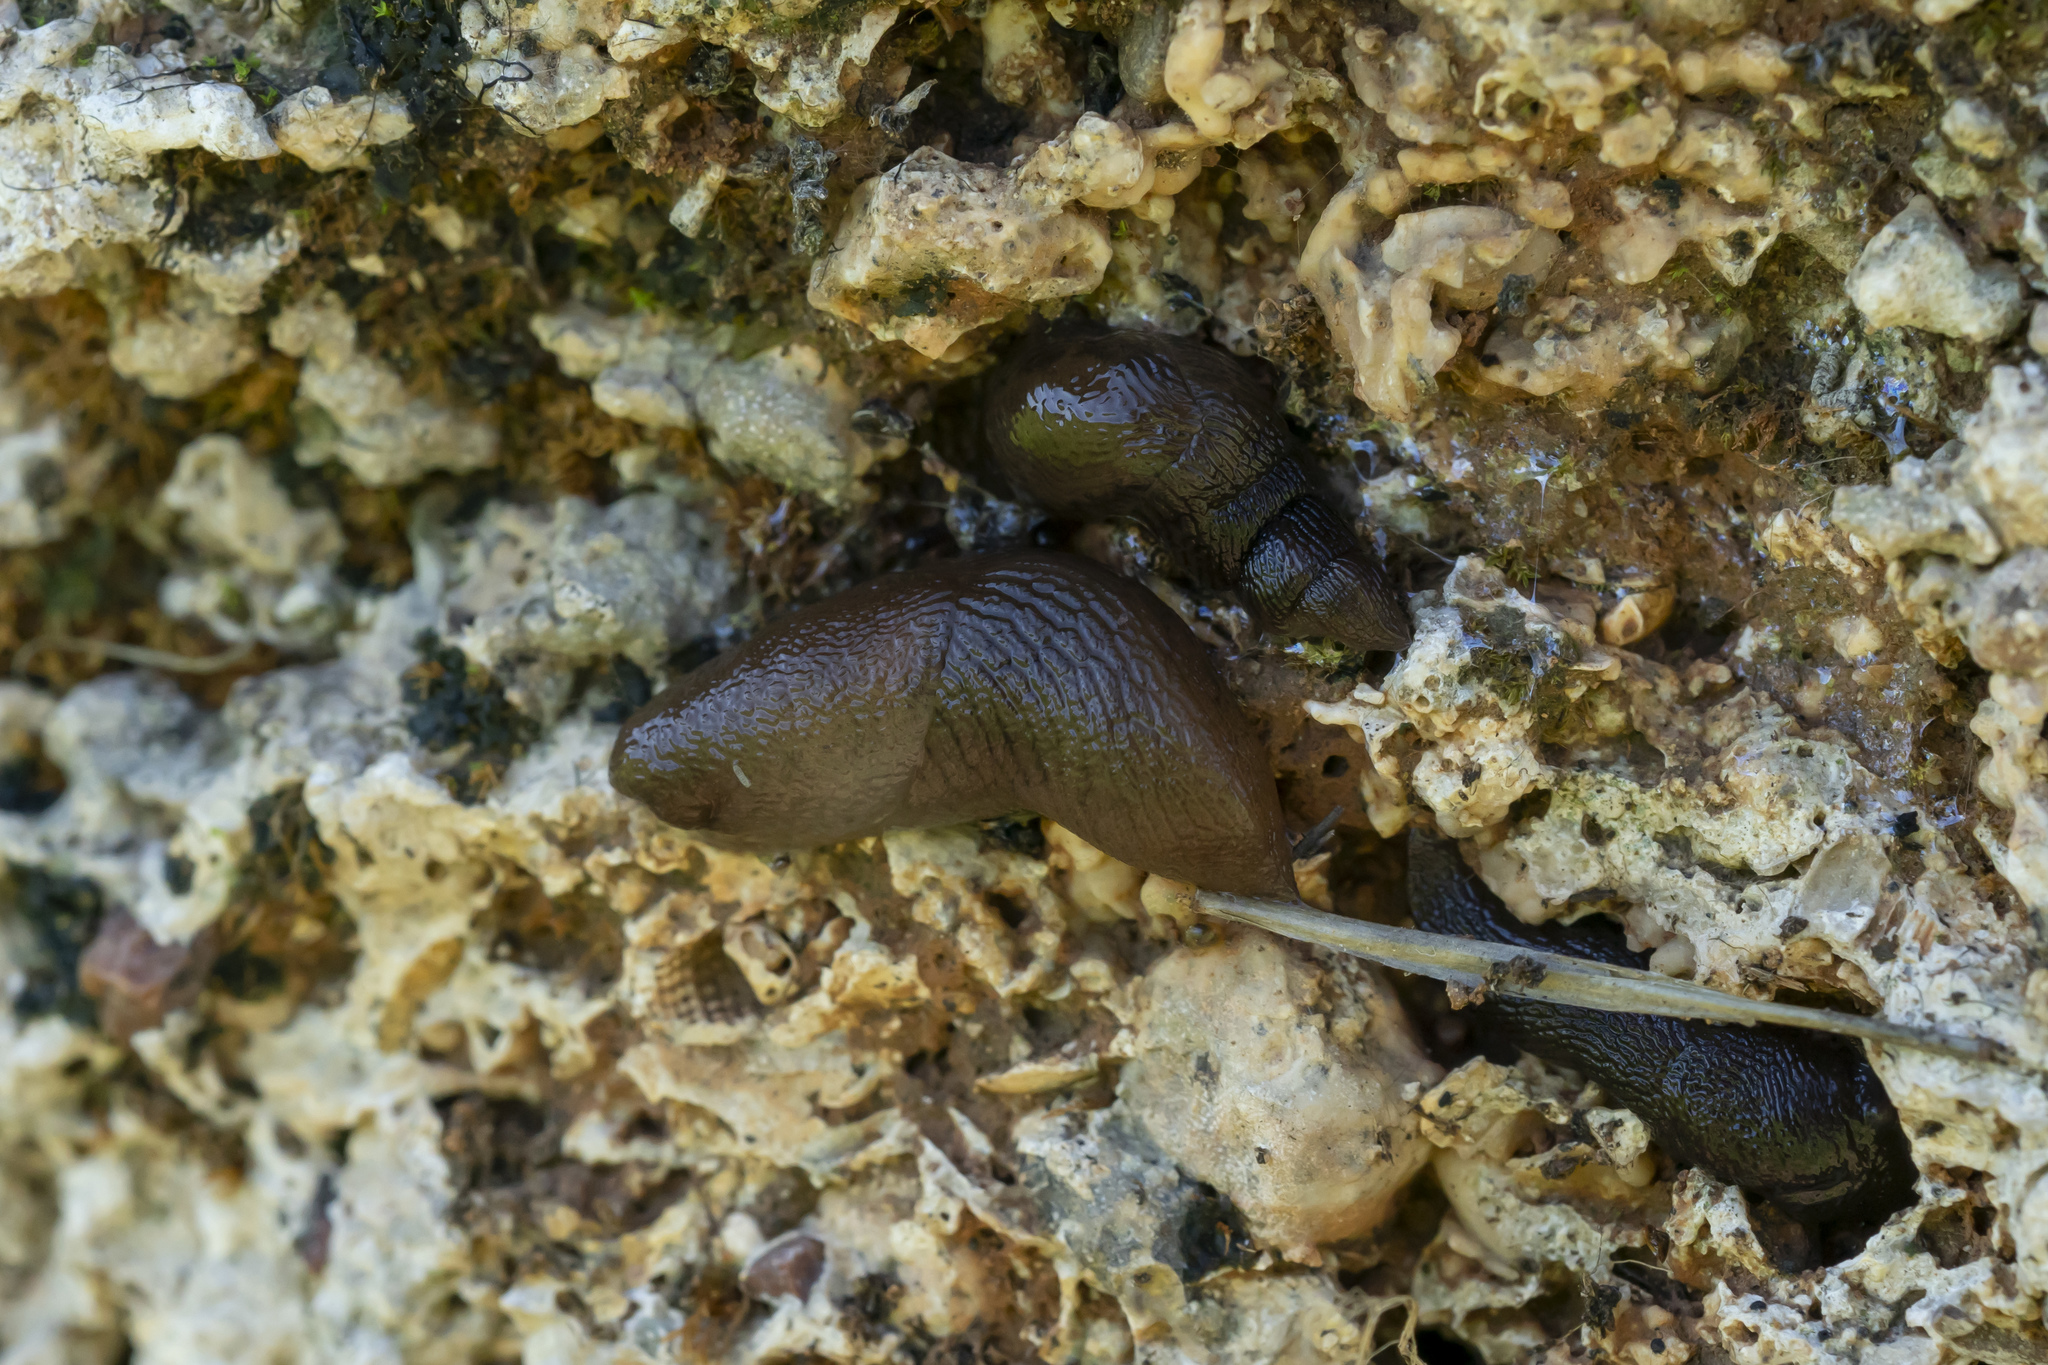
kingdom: Animalia
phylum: Mollusca
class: Gastropoda
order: Stylommatophora
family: Agriolimacidae
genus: Mesolimax
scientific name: Mesolimax brauni
